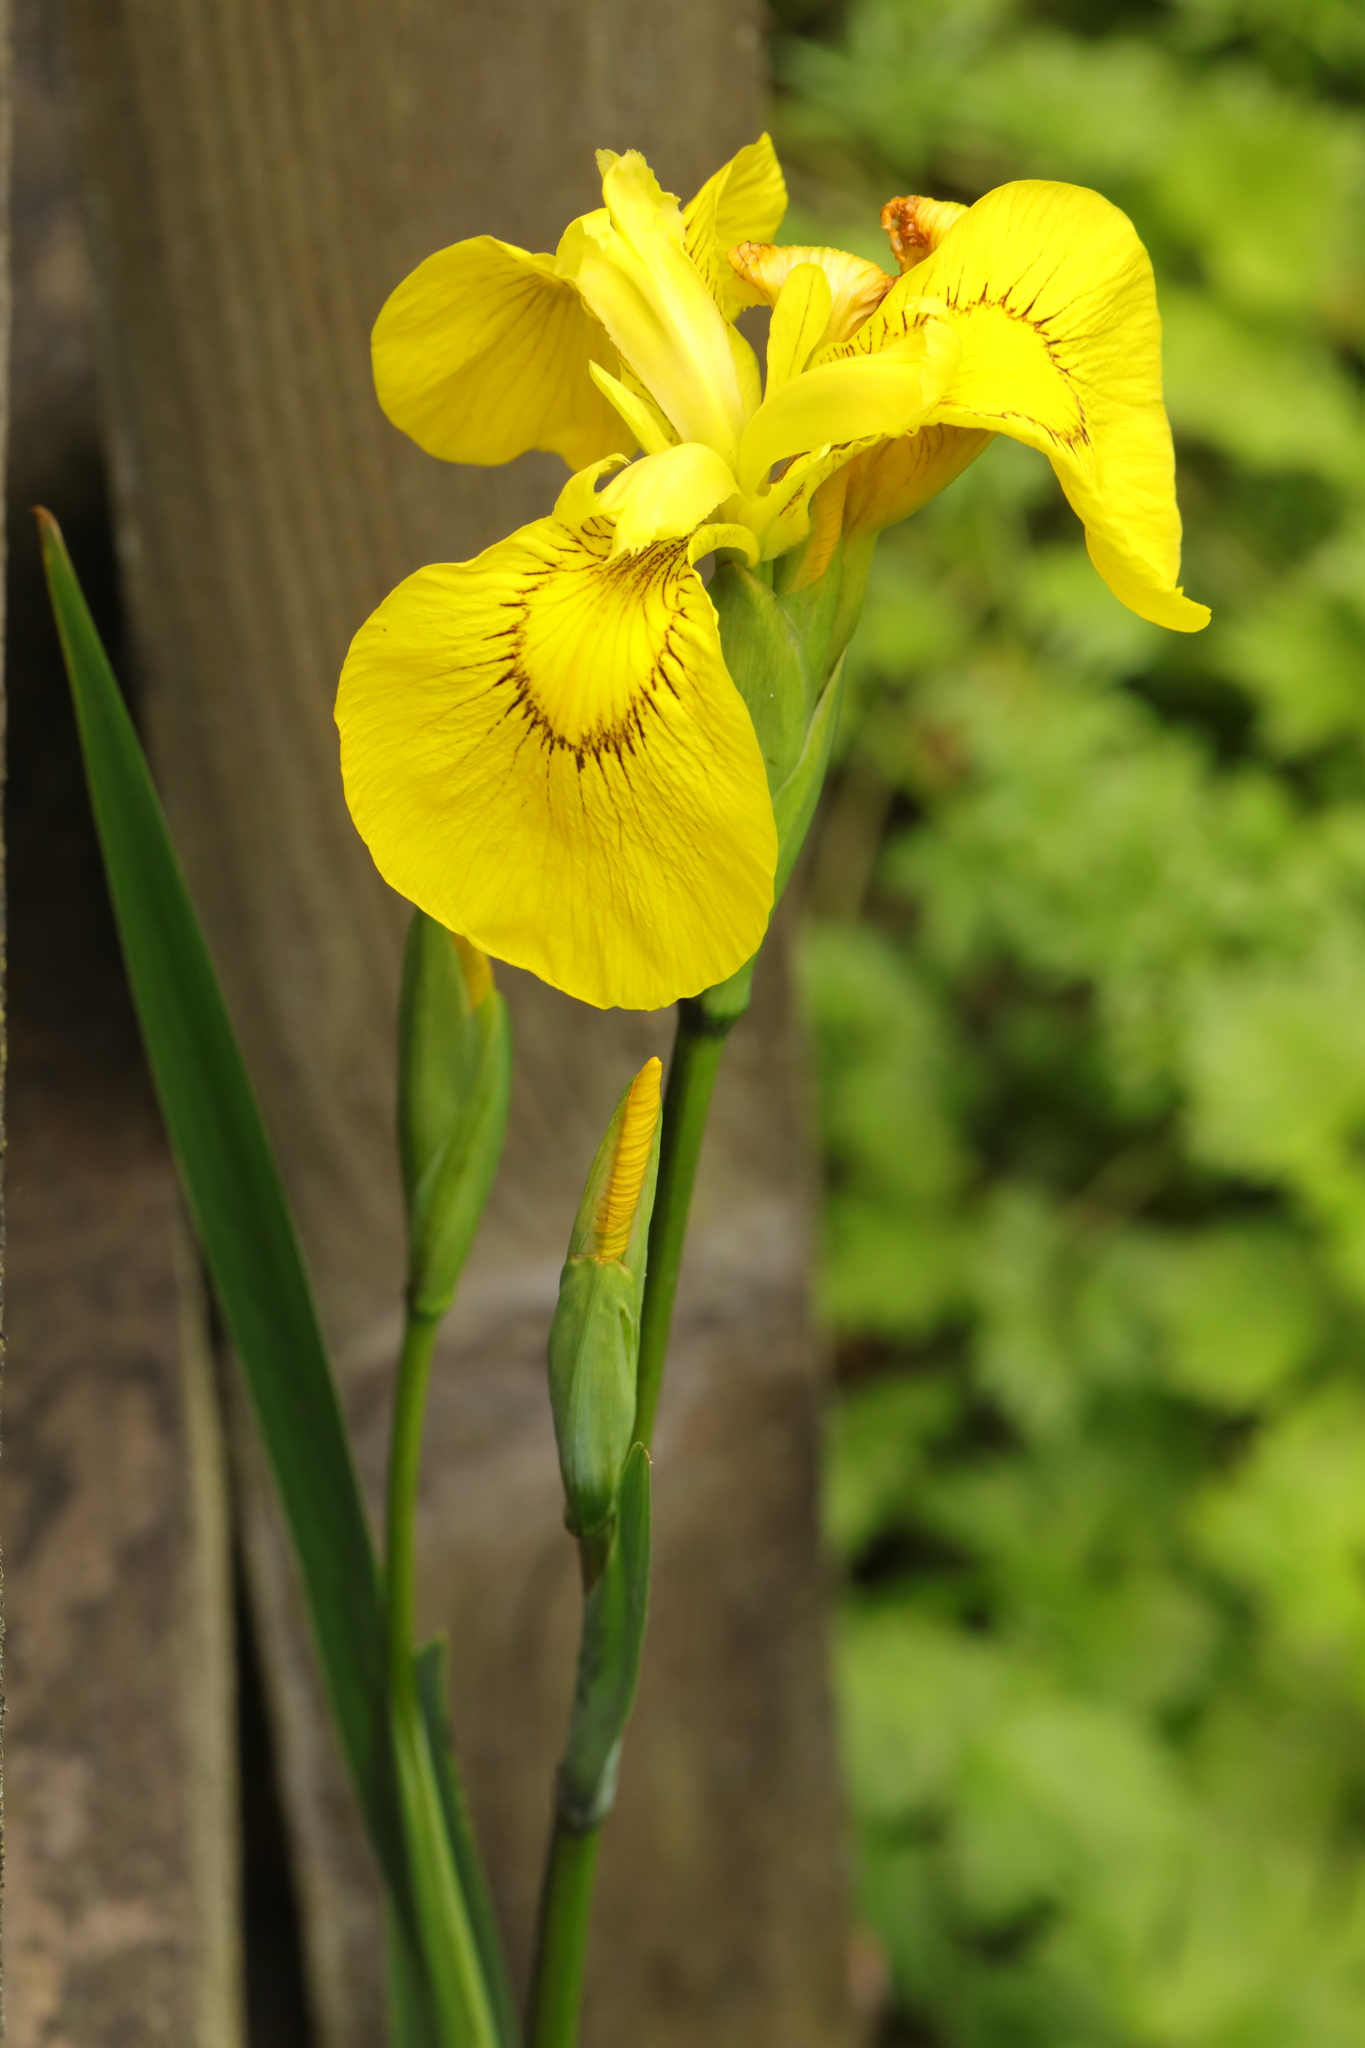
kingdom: Plantae
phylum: Tracheophyta
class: Liliopsida
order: Asparagales
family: Iridaceae
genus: Iris
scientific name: Iris pseudacorus
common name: Yellow flag
